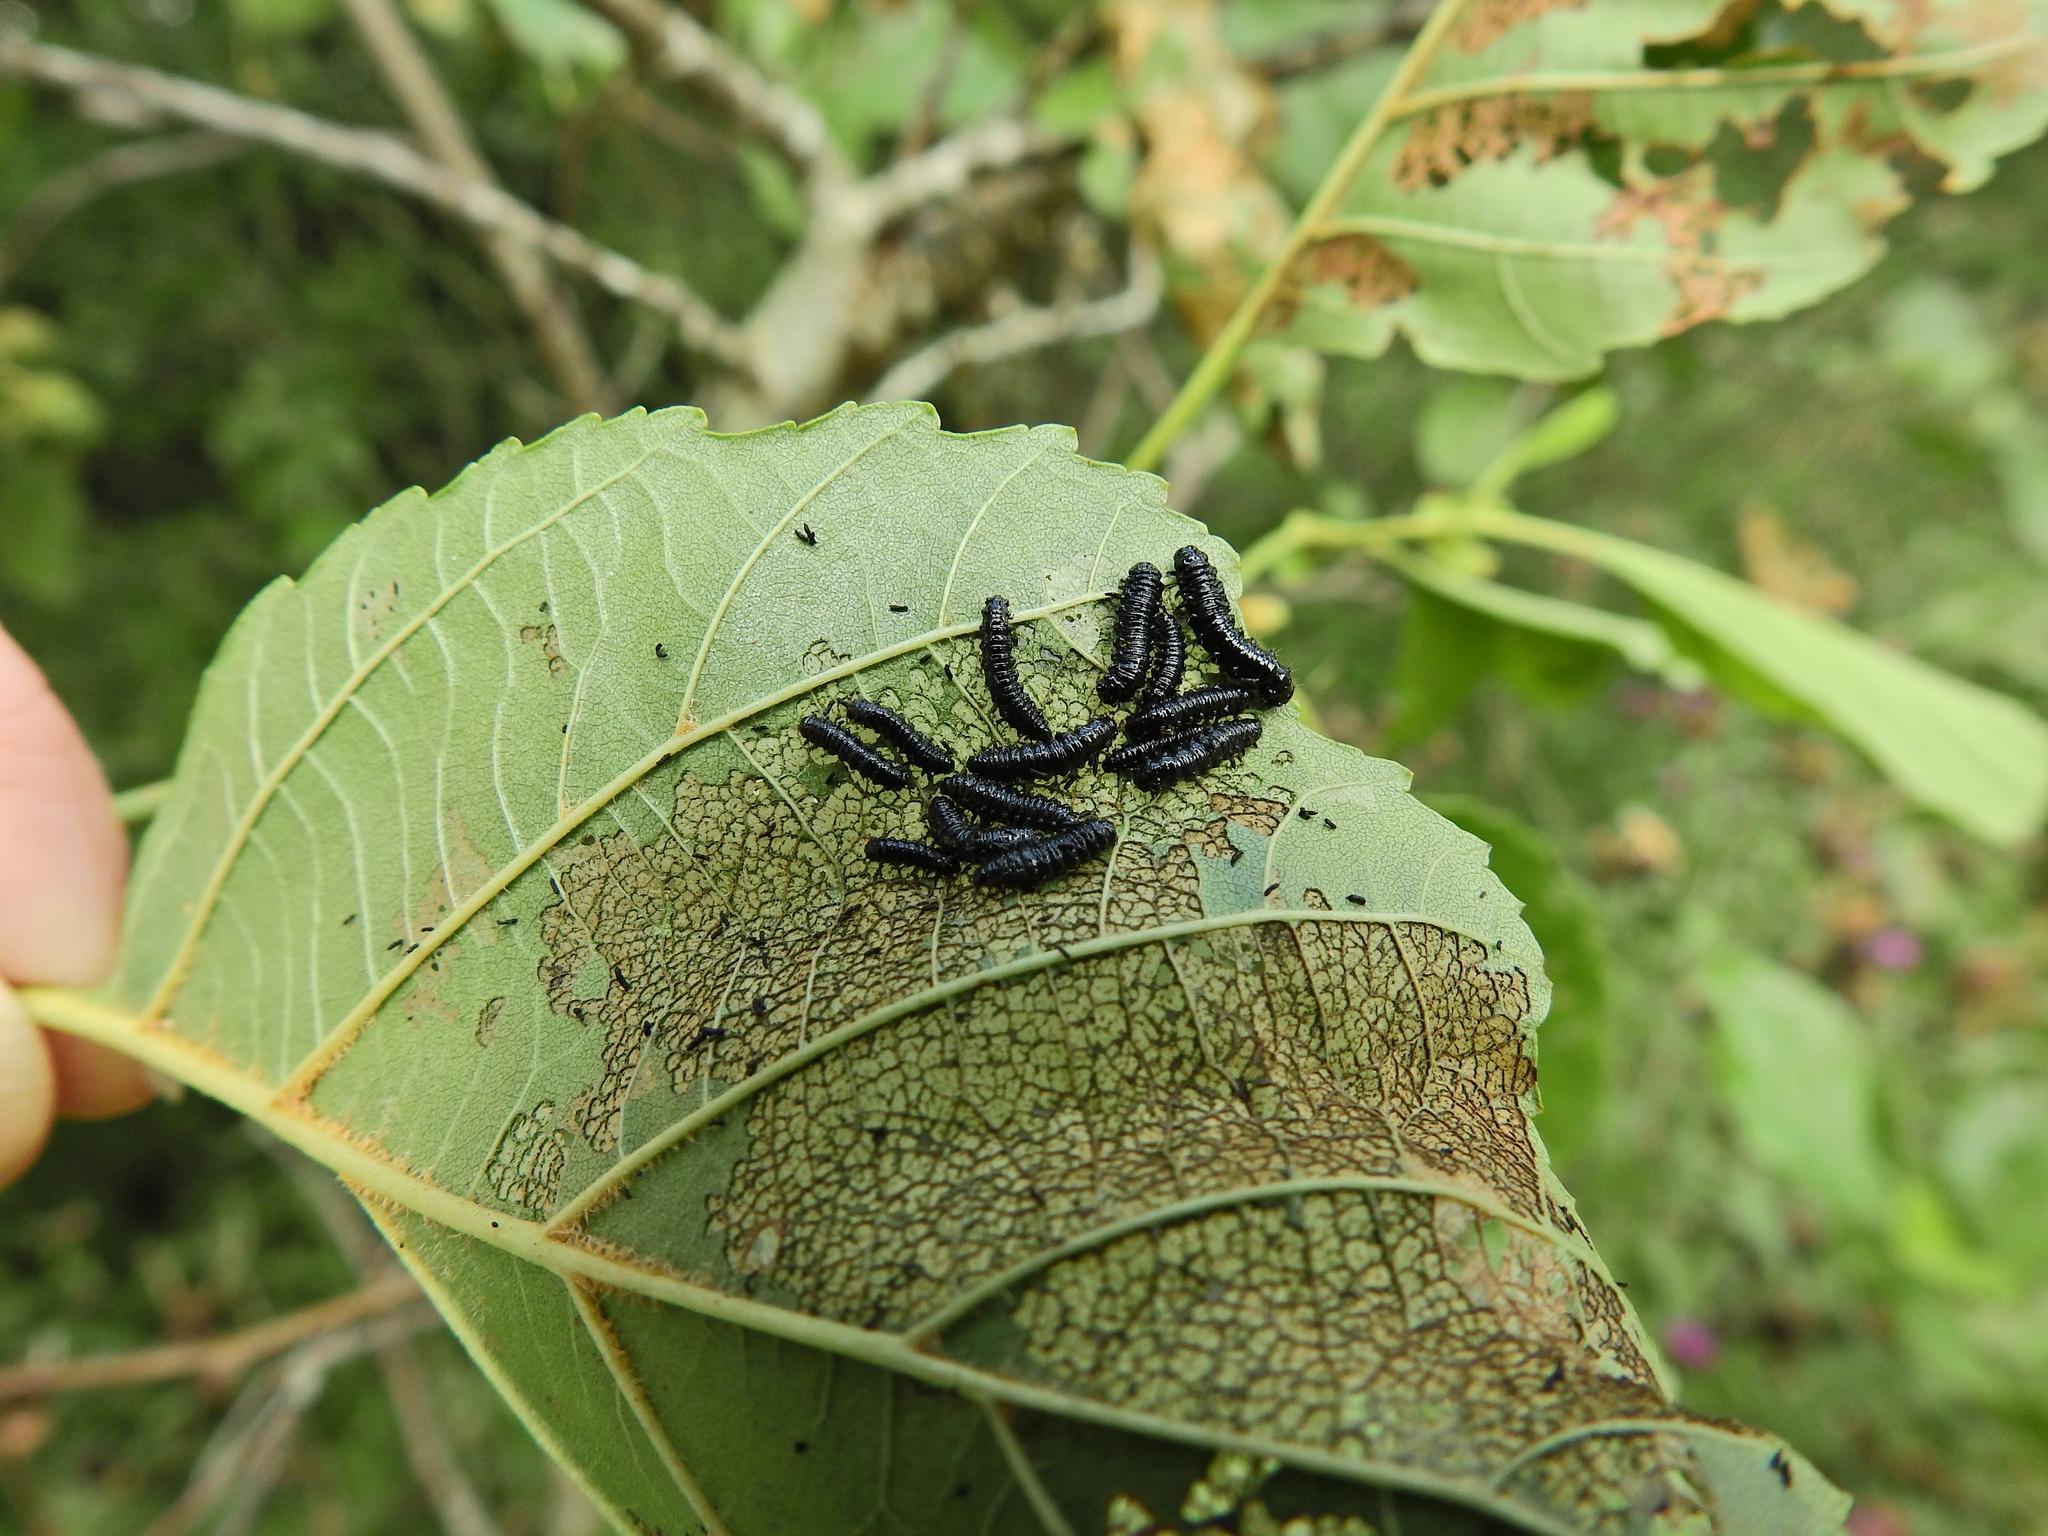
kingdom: Animalia
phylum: Arthropoda
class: Insecta
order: Coleoptera
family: Chrysomelidae
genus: Agelastica
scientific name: Agelastica alni
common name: Alder leaf beetle
